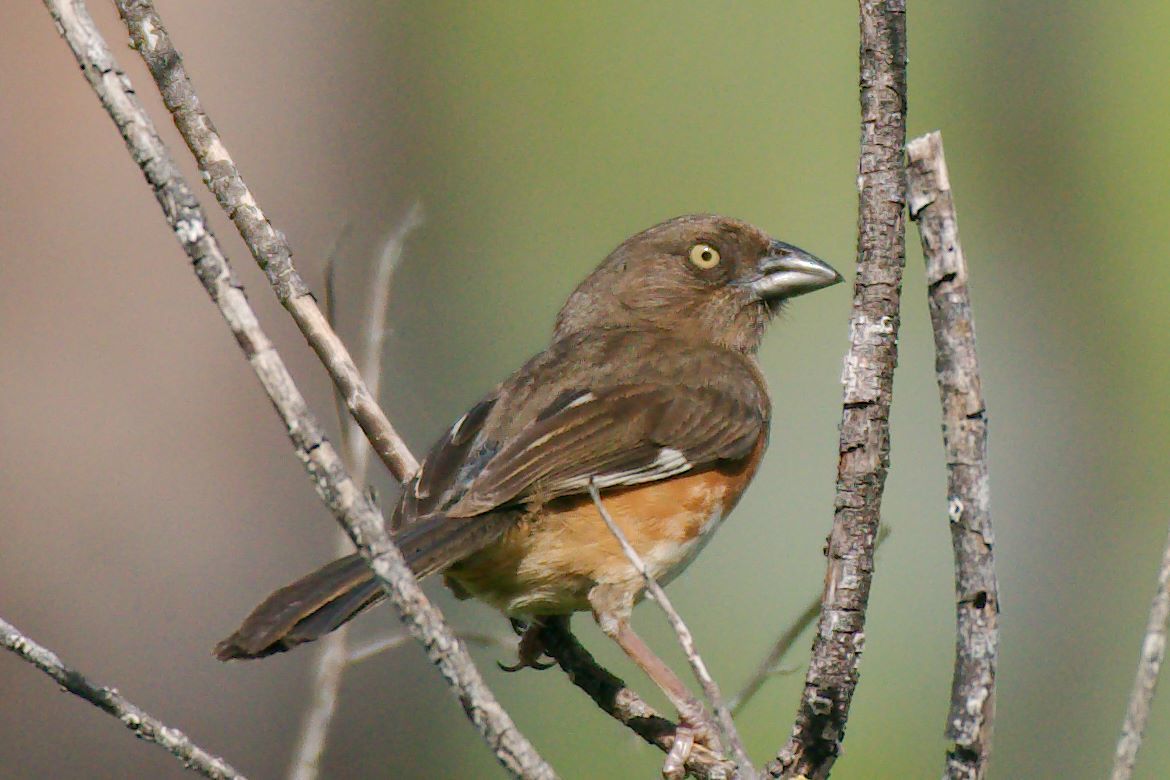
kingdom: Animalia
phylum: Chordata
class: Aves
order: Passeriformes
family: Passerellidae
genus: Pipilo
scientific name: Pipilo erythrophthalmus
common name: Eastern towhee
